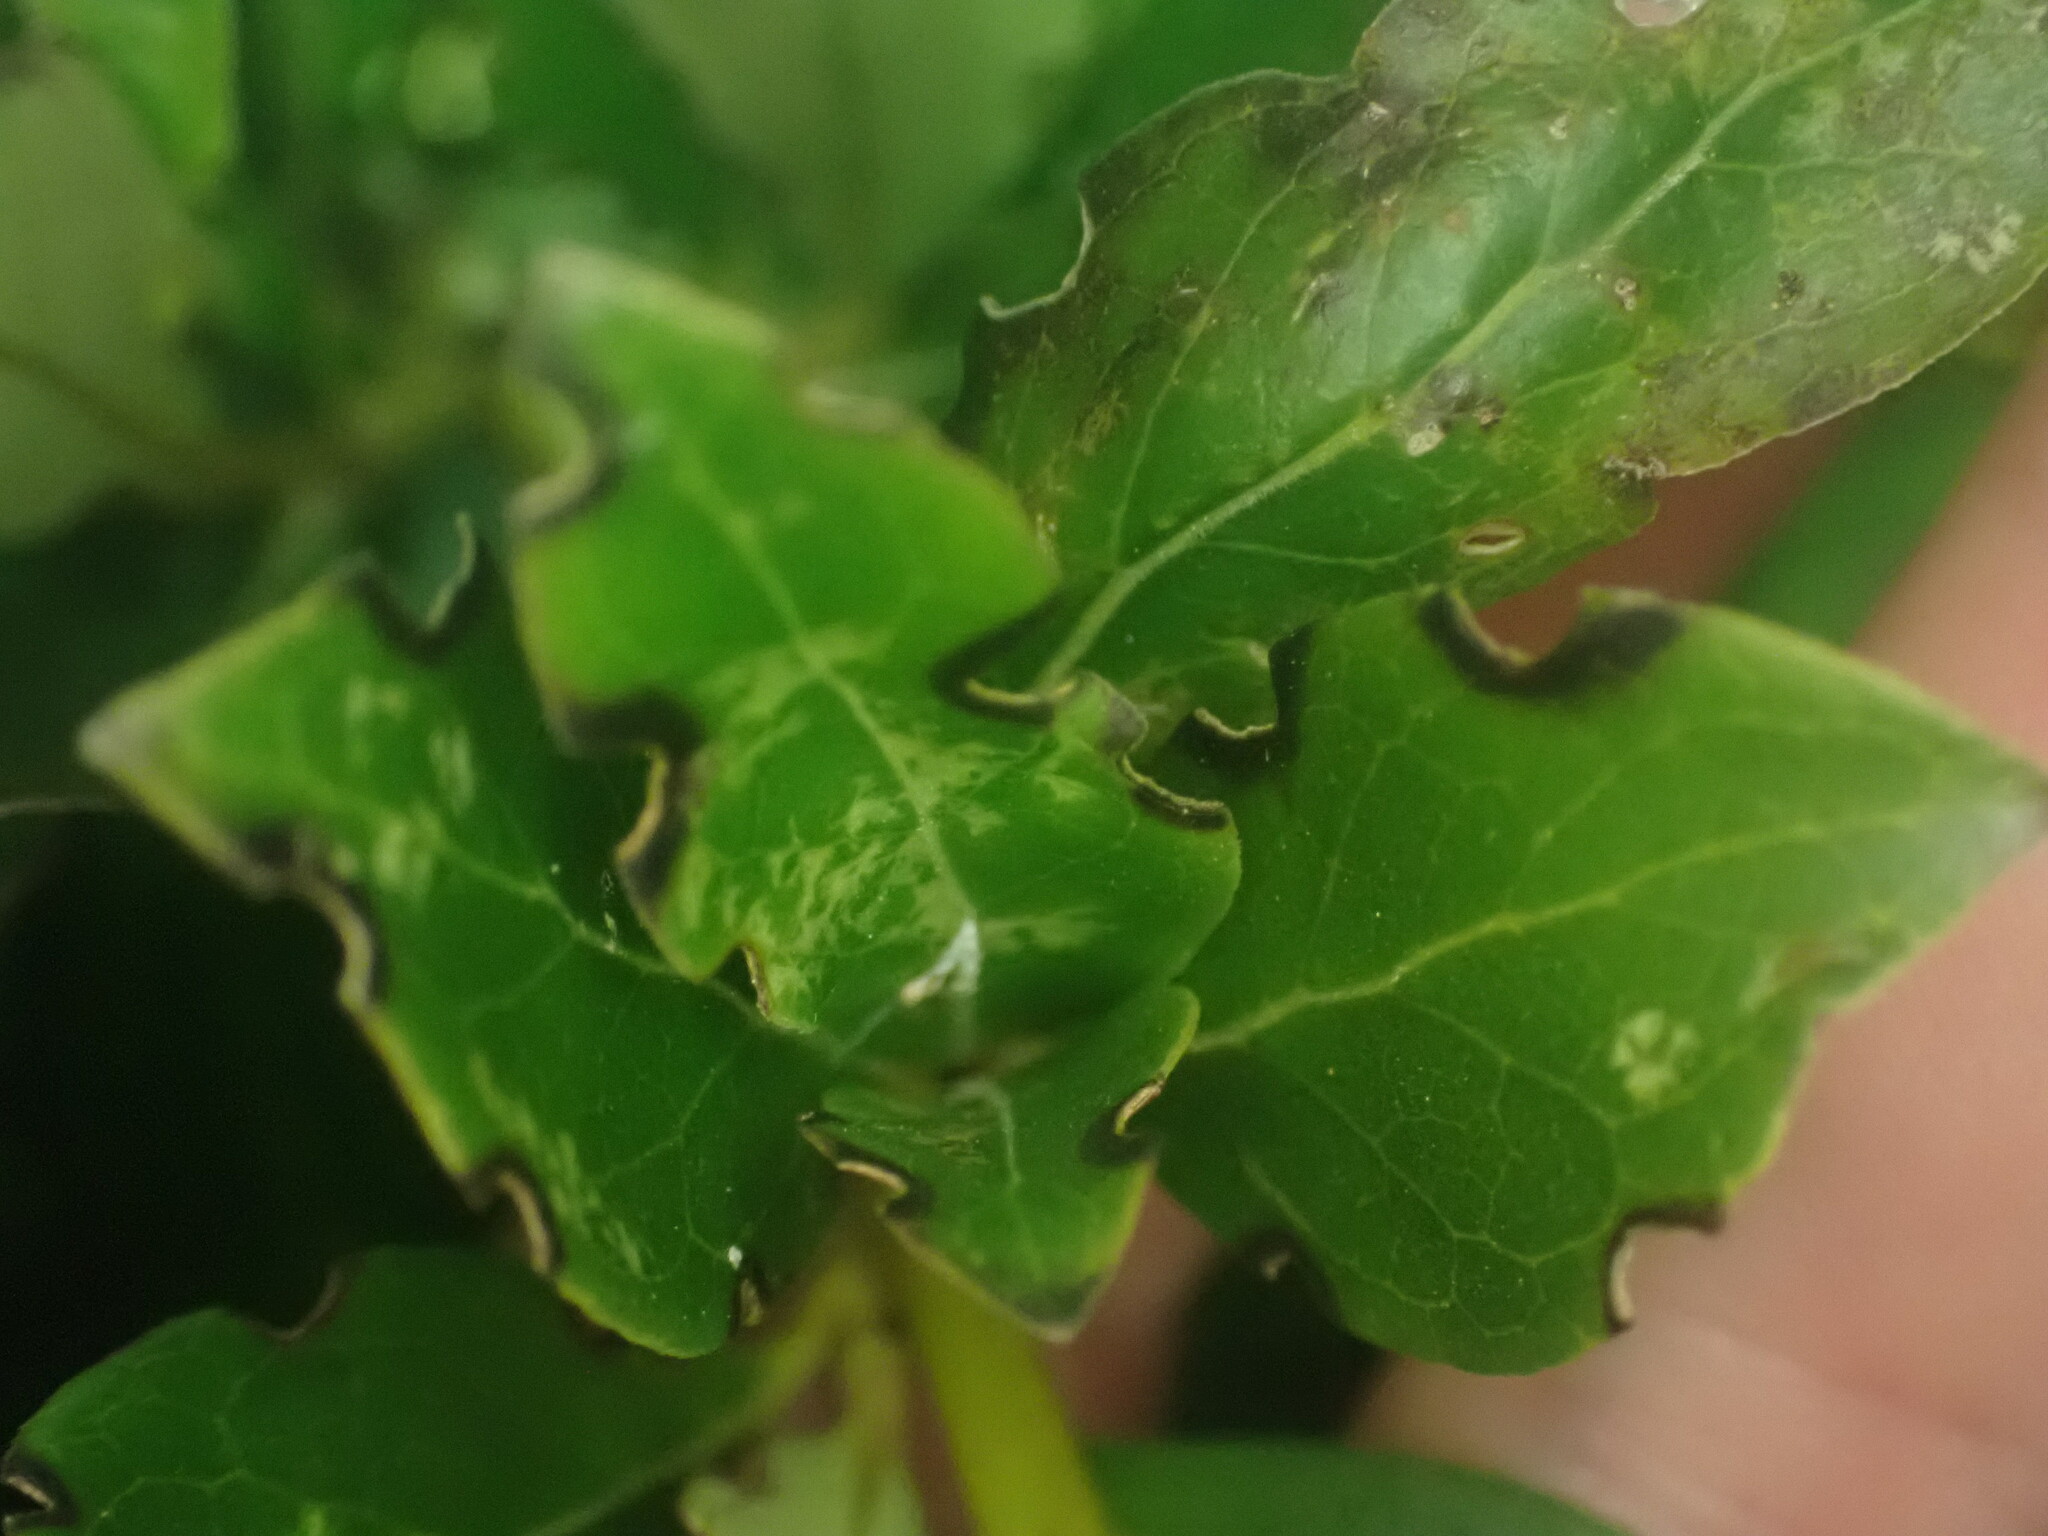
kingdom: Animalia
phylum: Arthropoda
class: Insecta
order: Coleoptera
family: Curculionidae
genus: Chalepistes
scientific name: Chalepistes costifer
